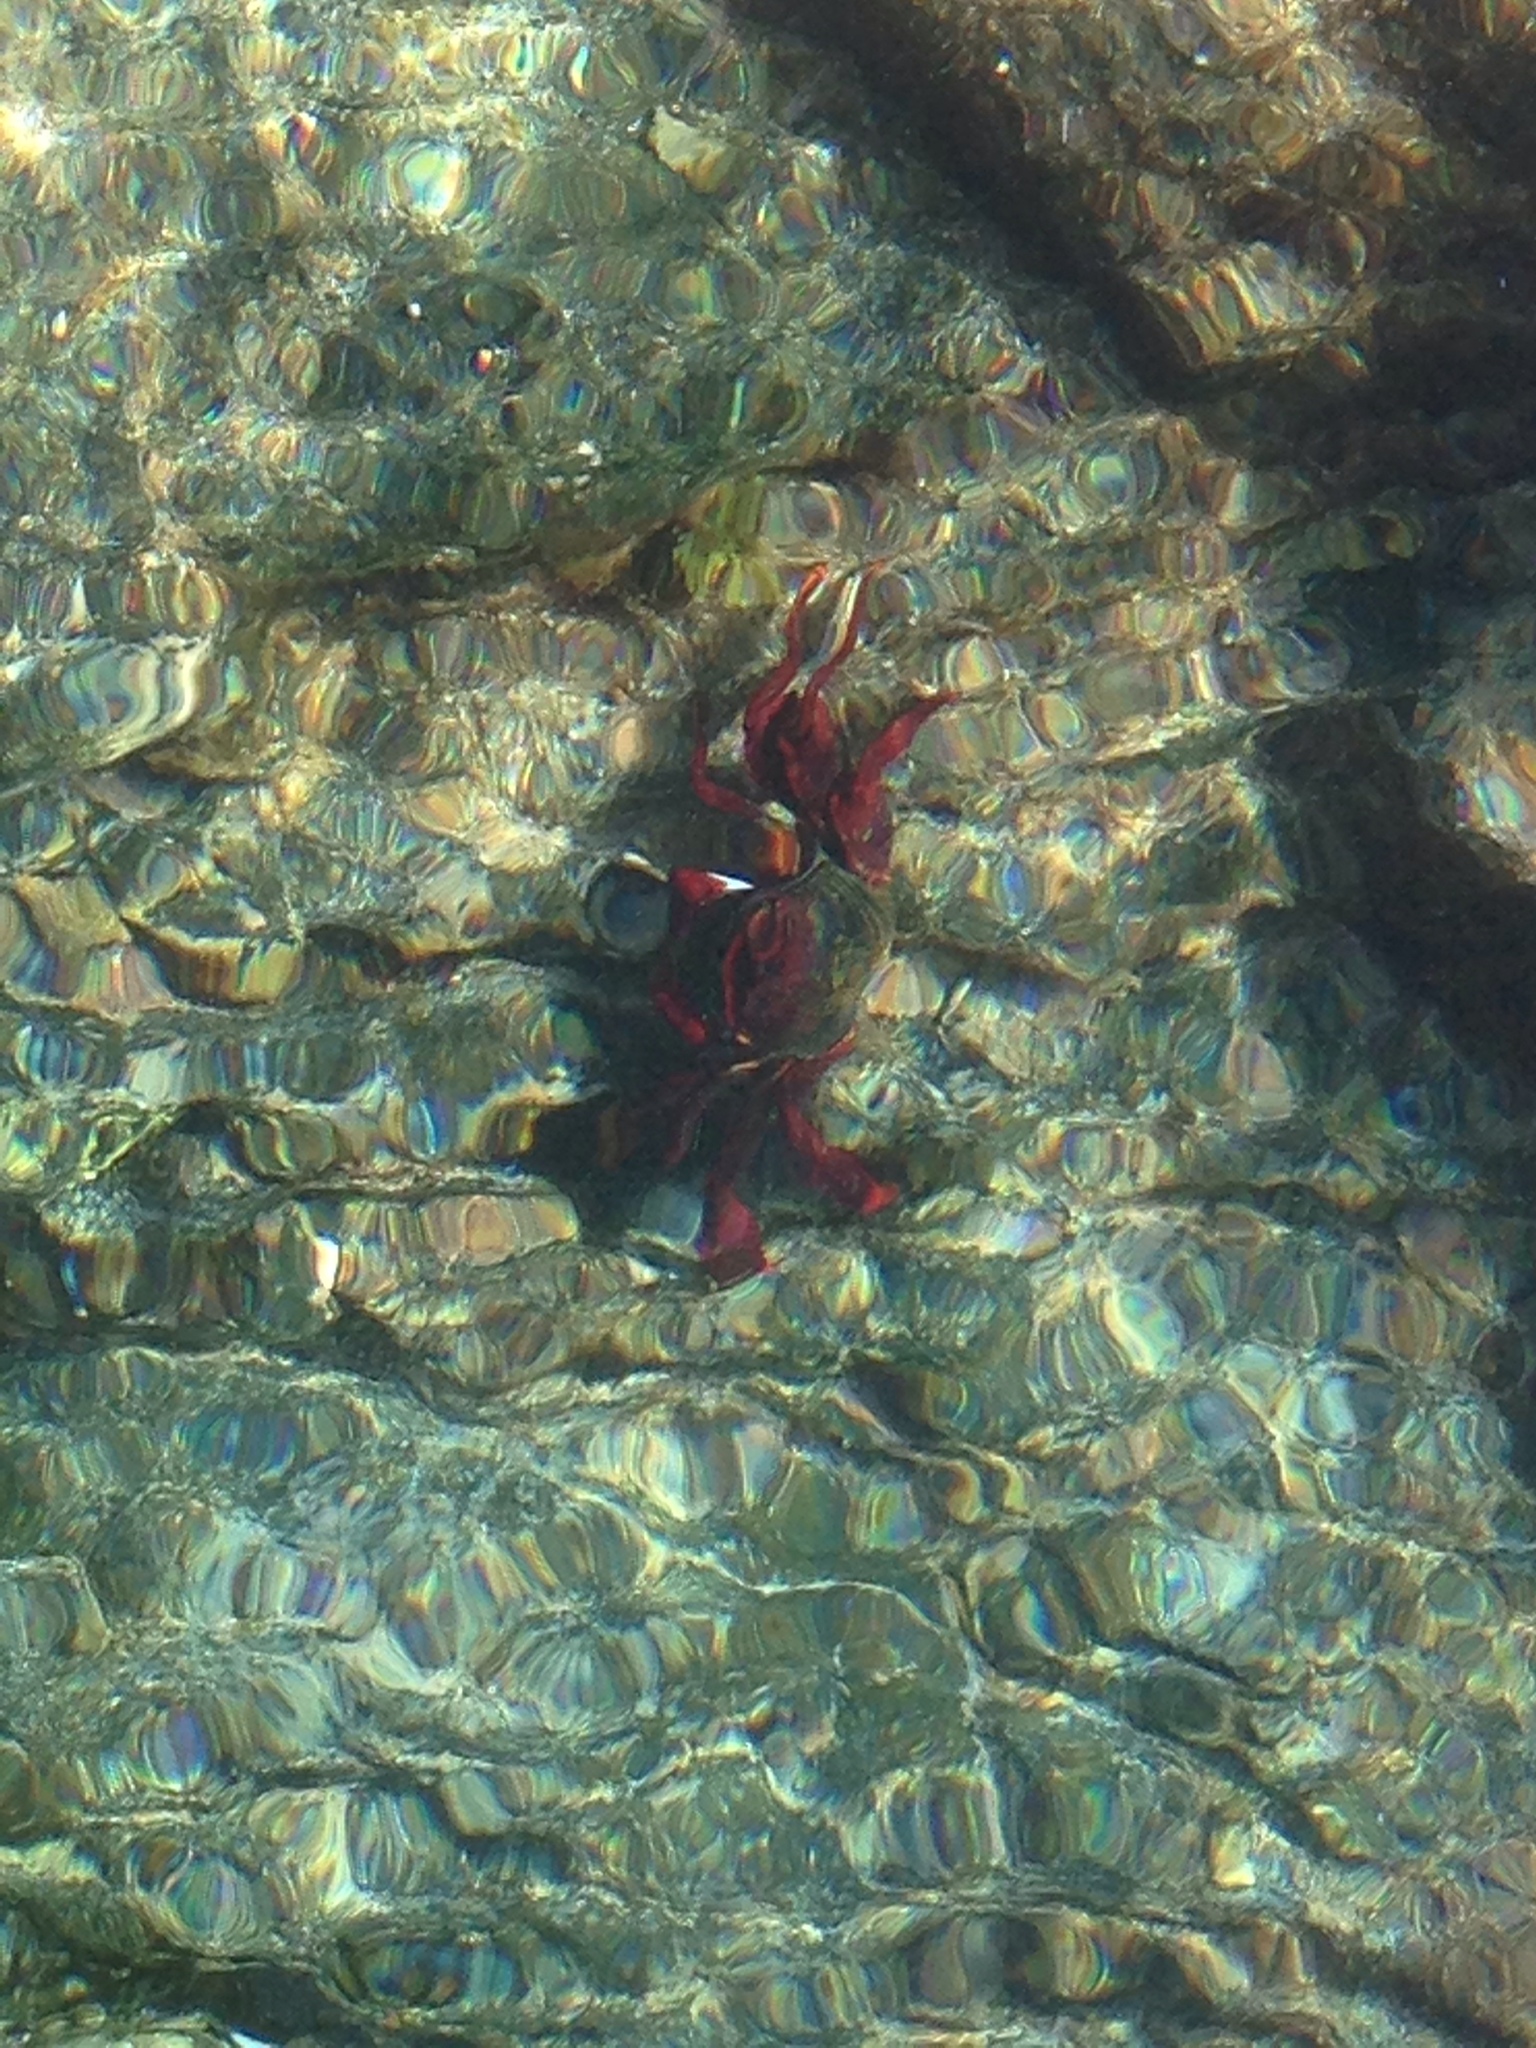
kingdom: Animalia
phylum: Arthropoda
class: Malacostraca
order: Decapoda
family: Grapsidae
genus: Grapsus
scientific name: Grapsus adscensionis
